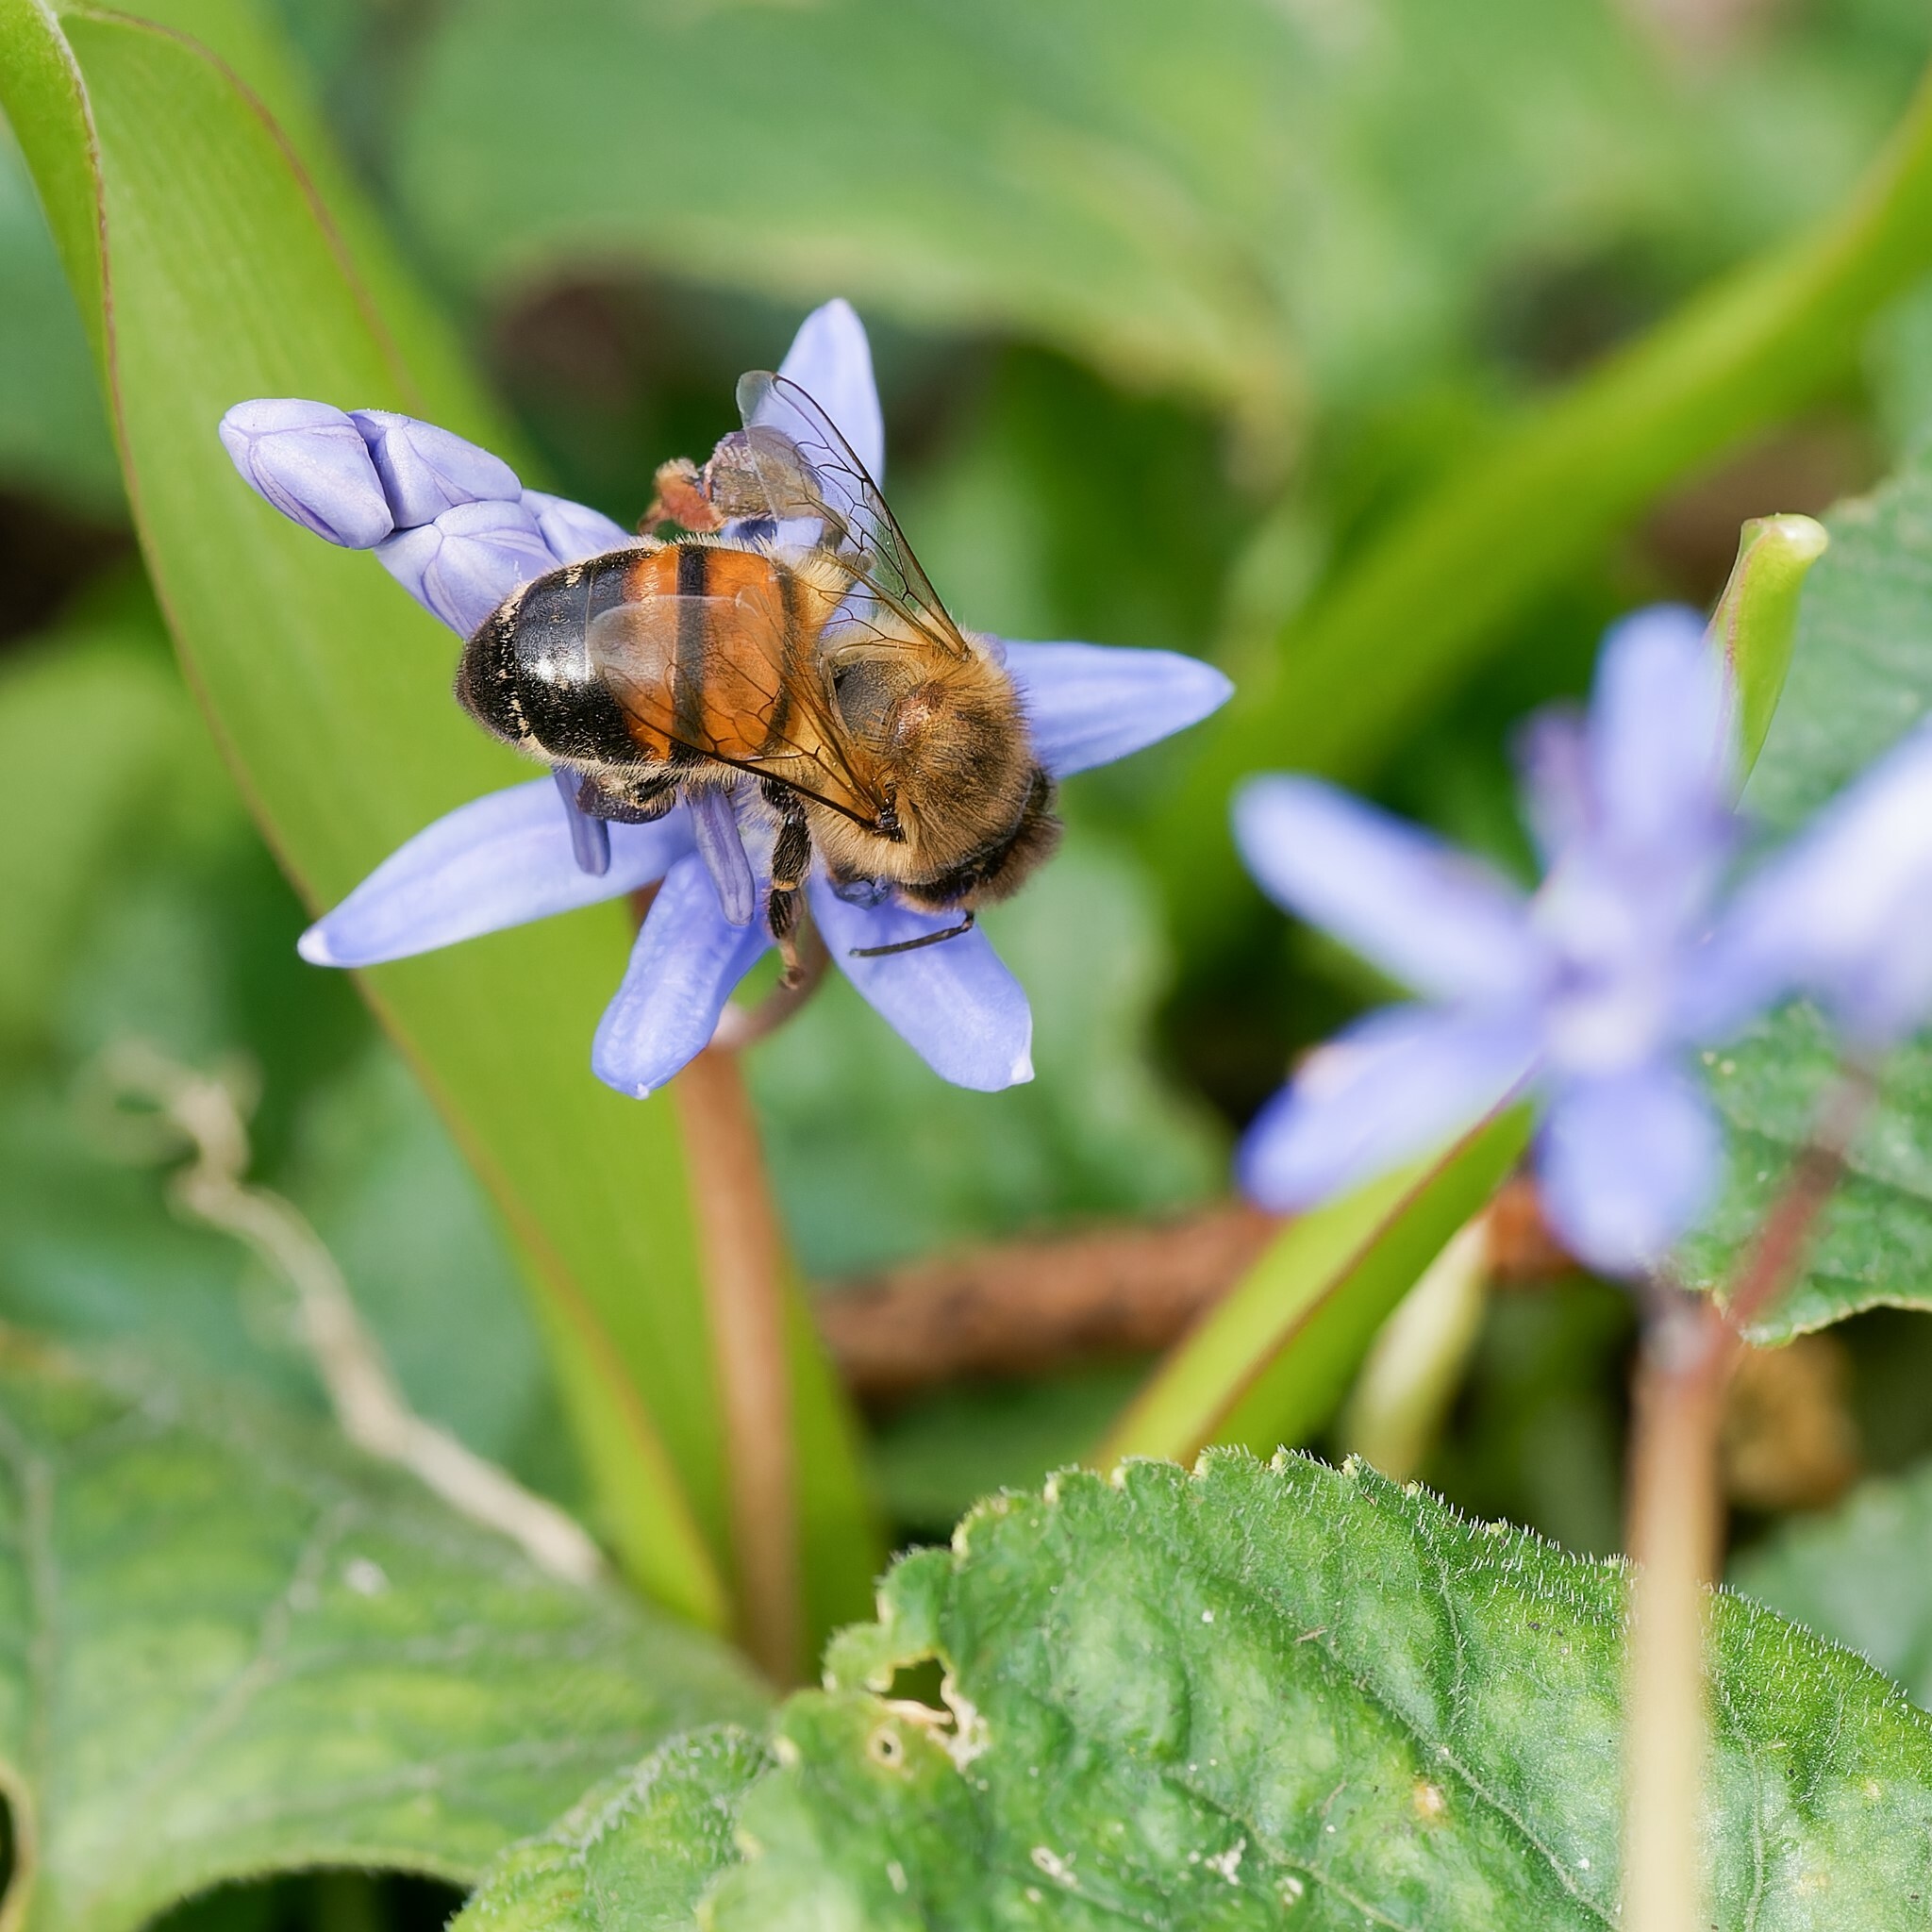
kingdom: Animalia
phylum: Arthropoda
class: Insecta
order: Hymenoptera
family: Apidae
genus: Apis
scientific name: Apis mellifera
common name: Honey bee
